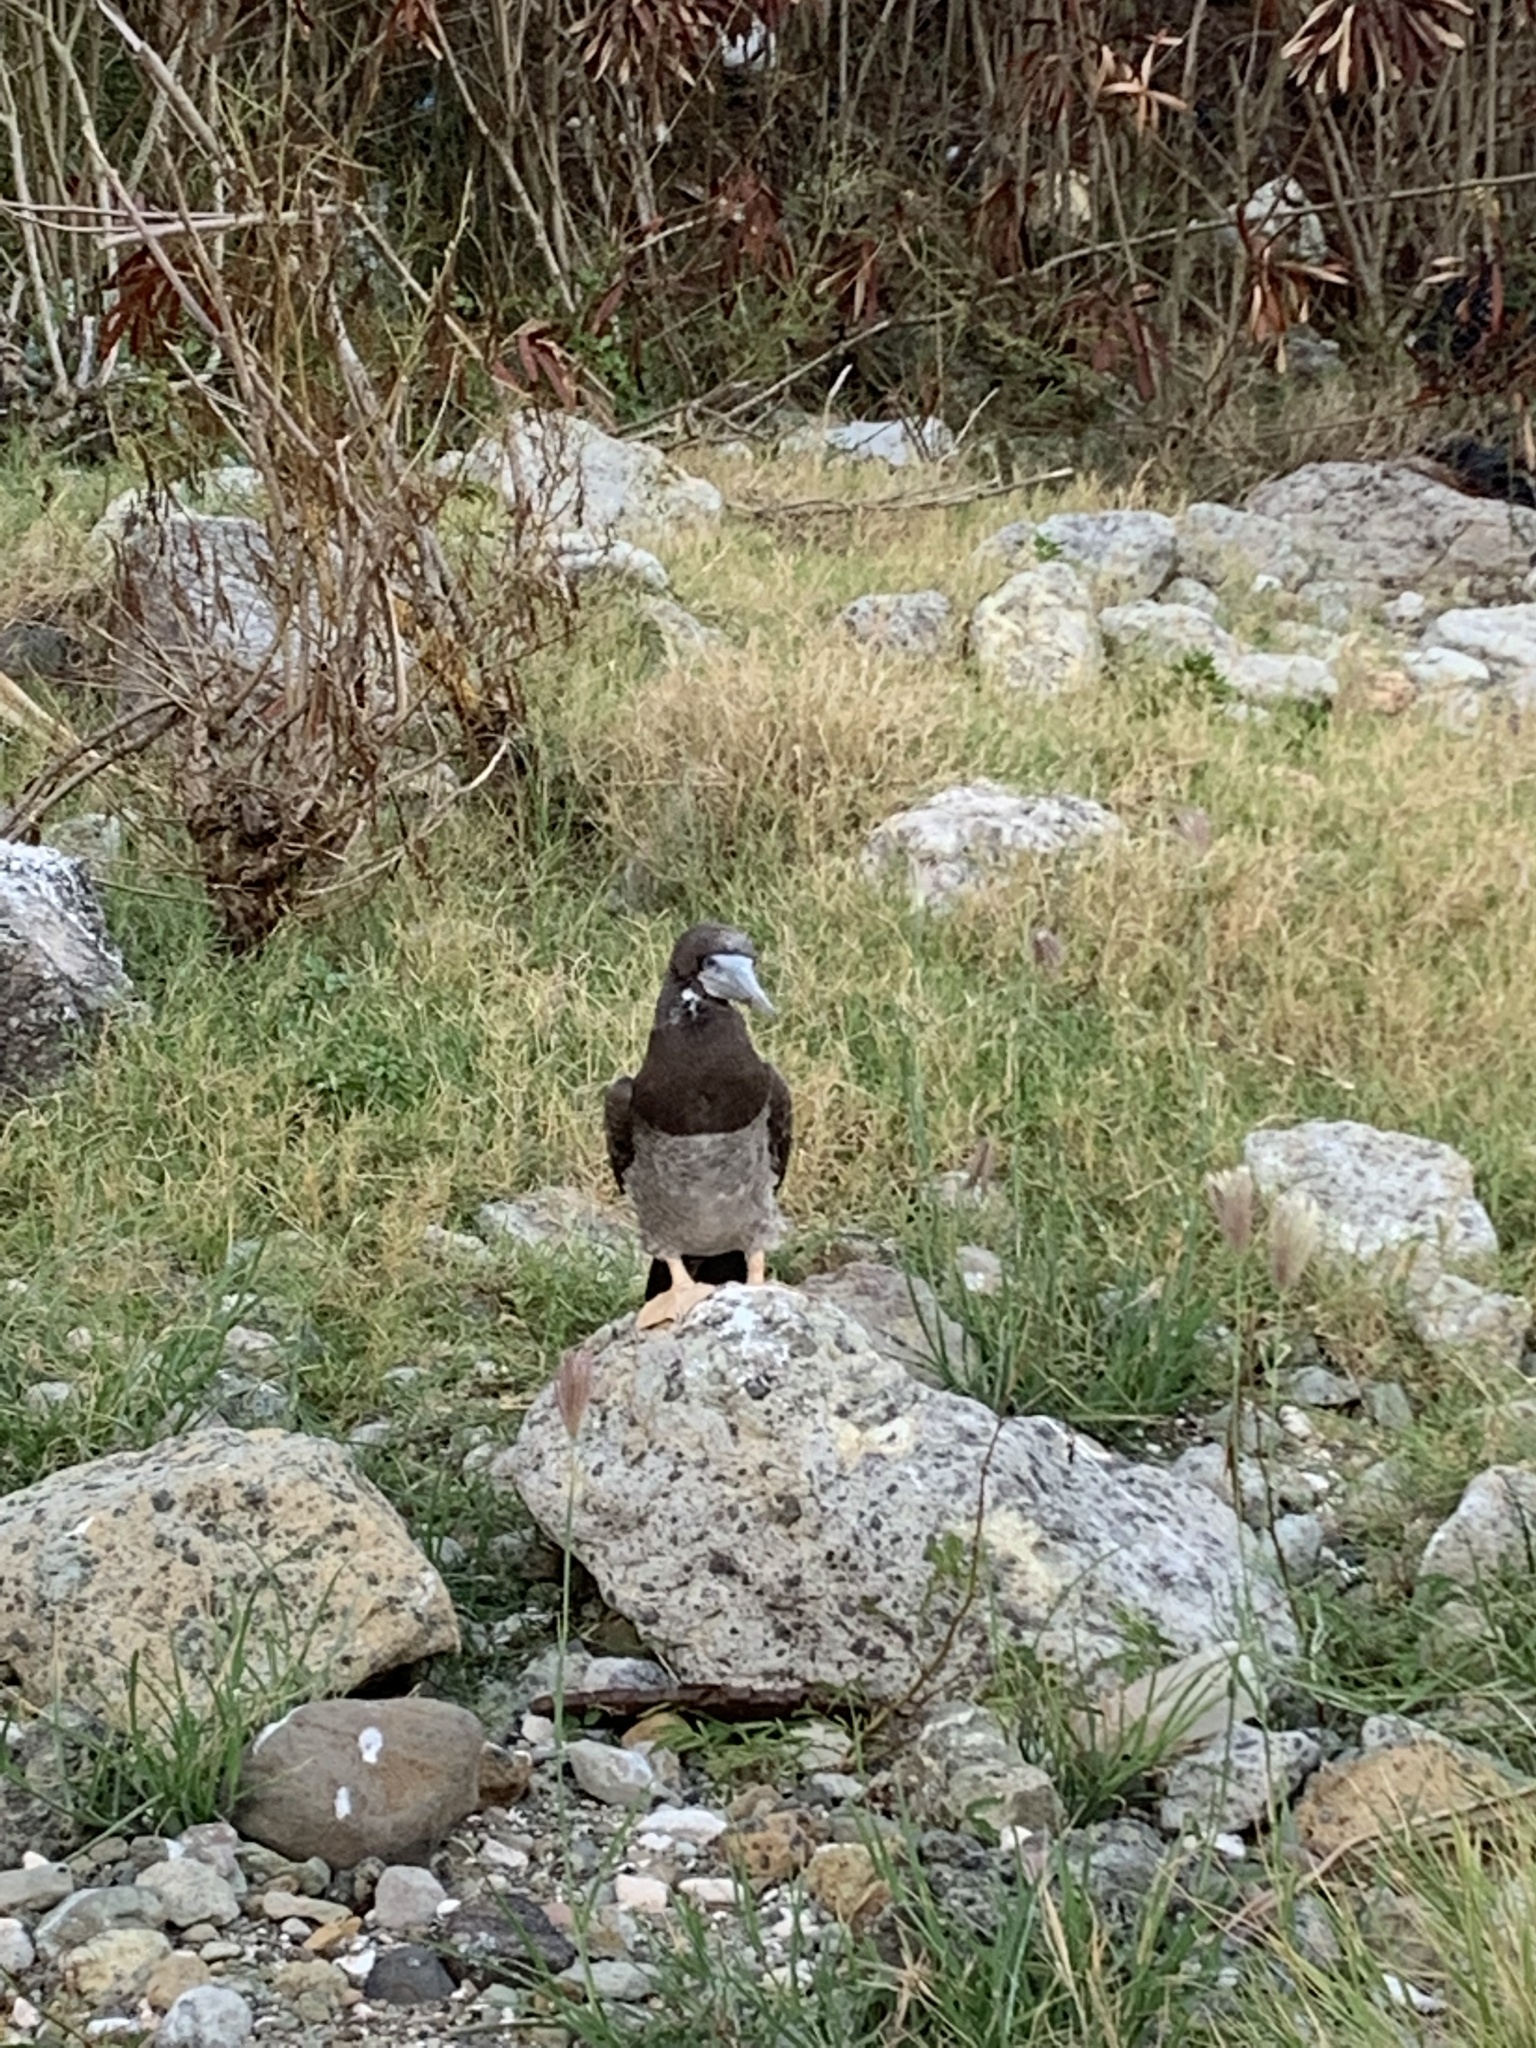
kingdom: Animalia
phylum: Chordata
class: Aves
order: Suliformes
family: Sulidae
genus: Sula
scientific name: Sula leucogaster
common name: Brown booby
